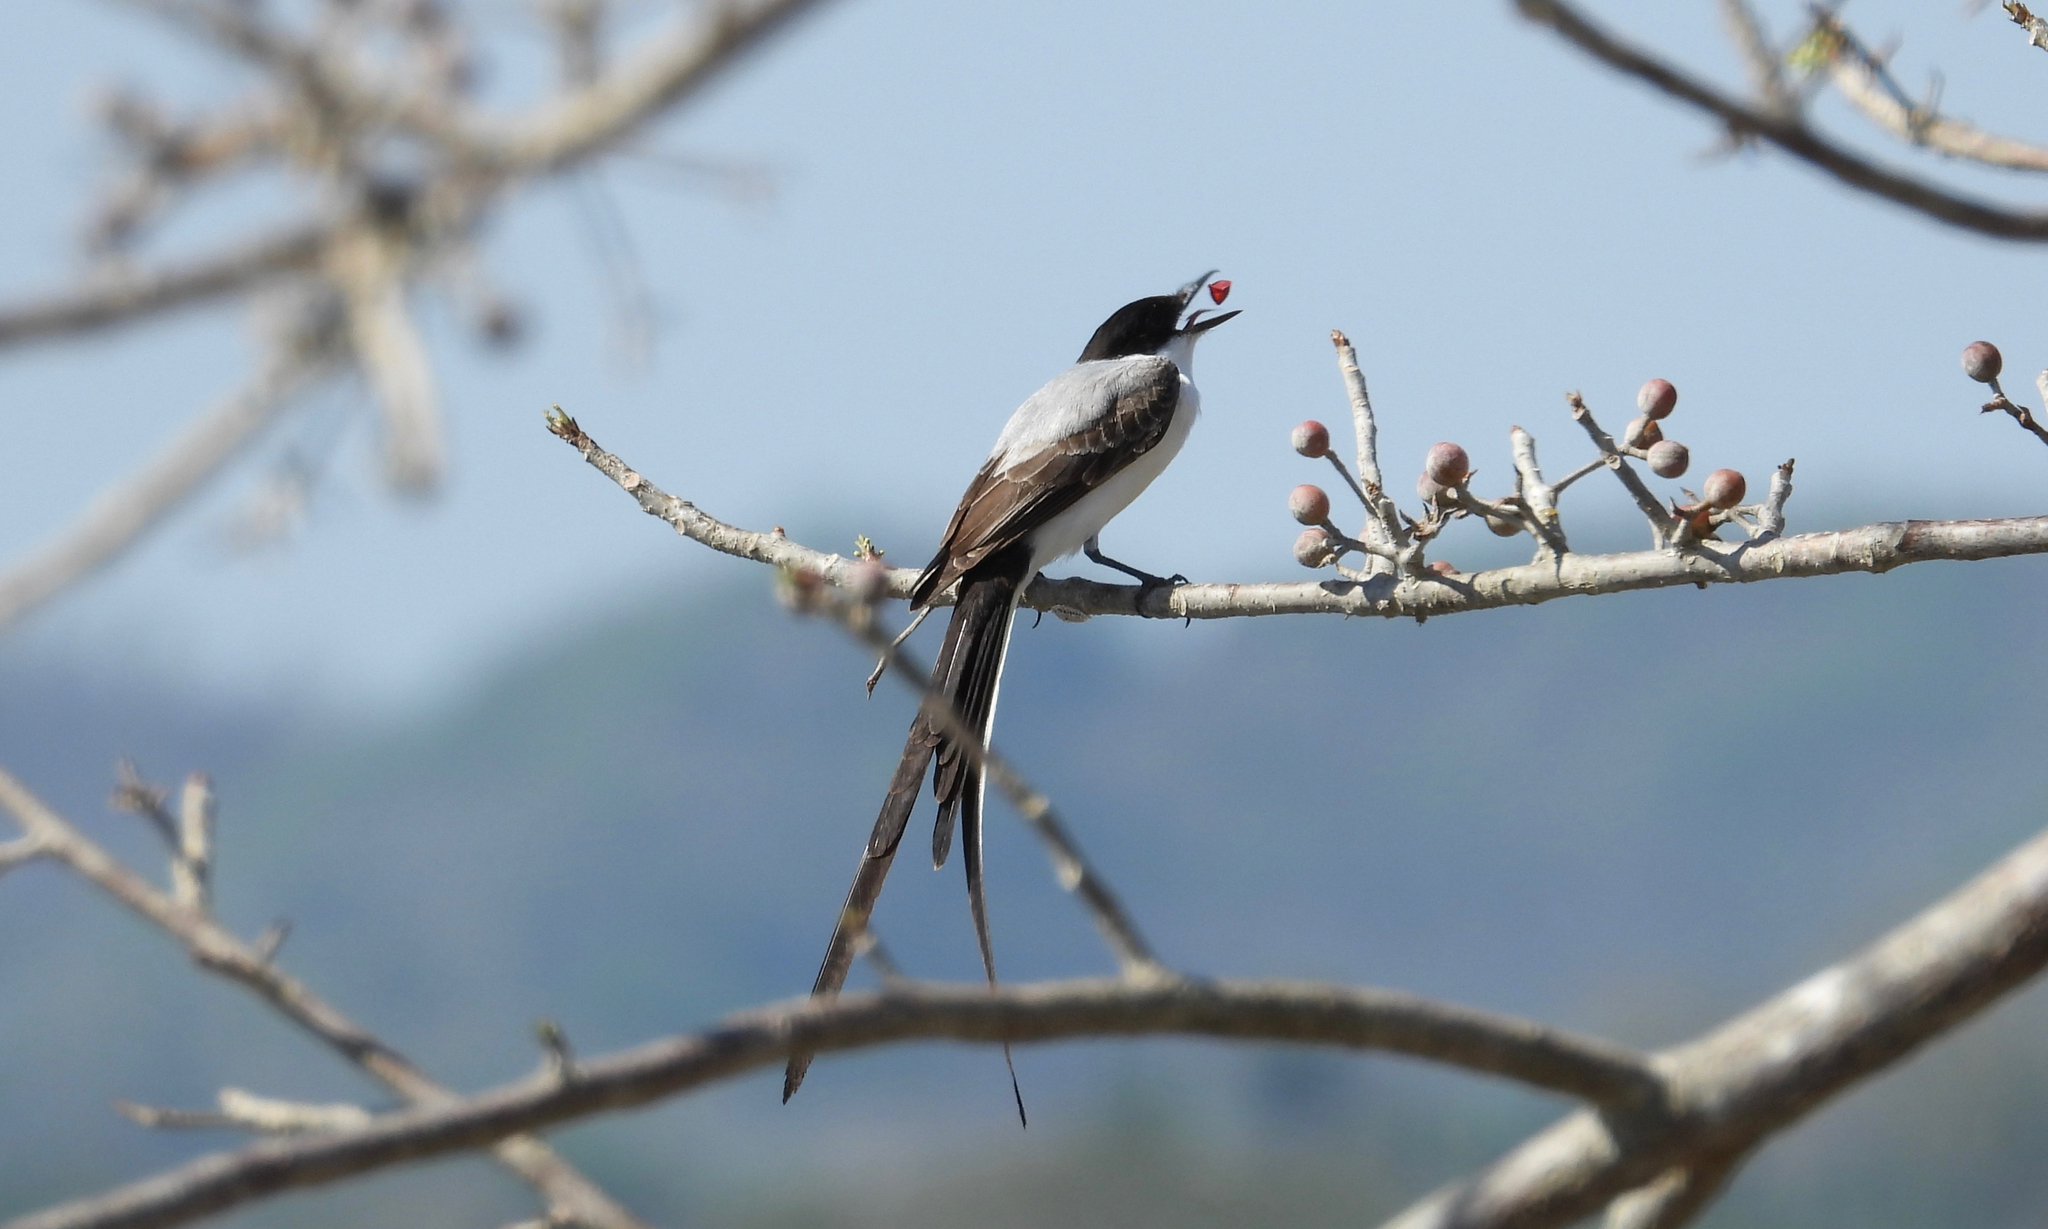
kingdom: Animalia
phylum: Chordata
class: Aves
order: Passeriformes
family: Tyrannidae
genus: Tyrannus
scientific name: Tyrannus savana
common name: Fork-tailed flycatcher
